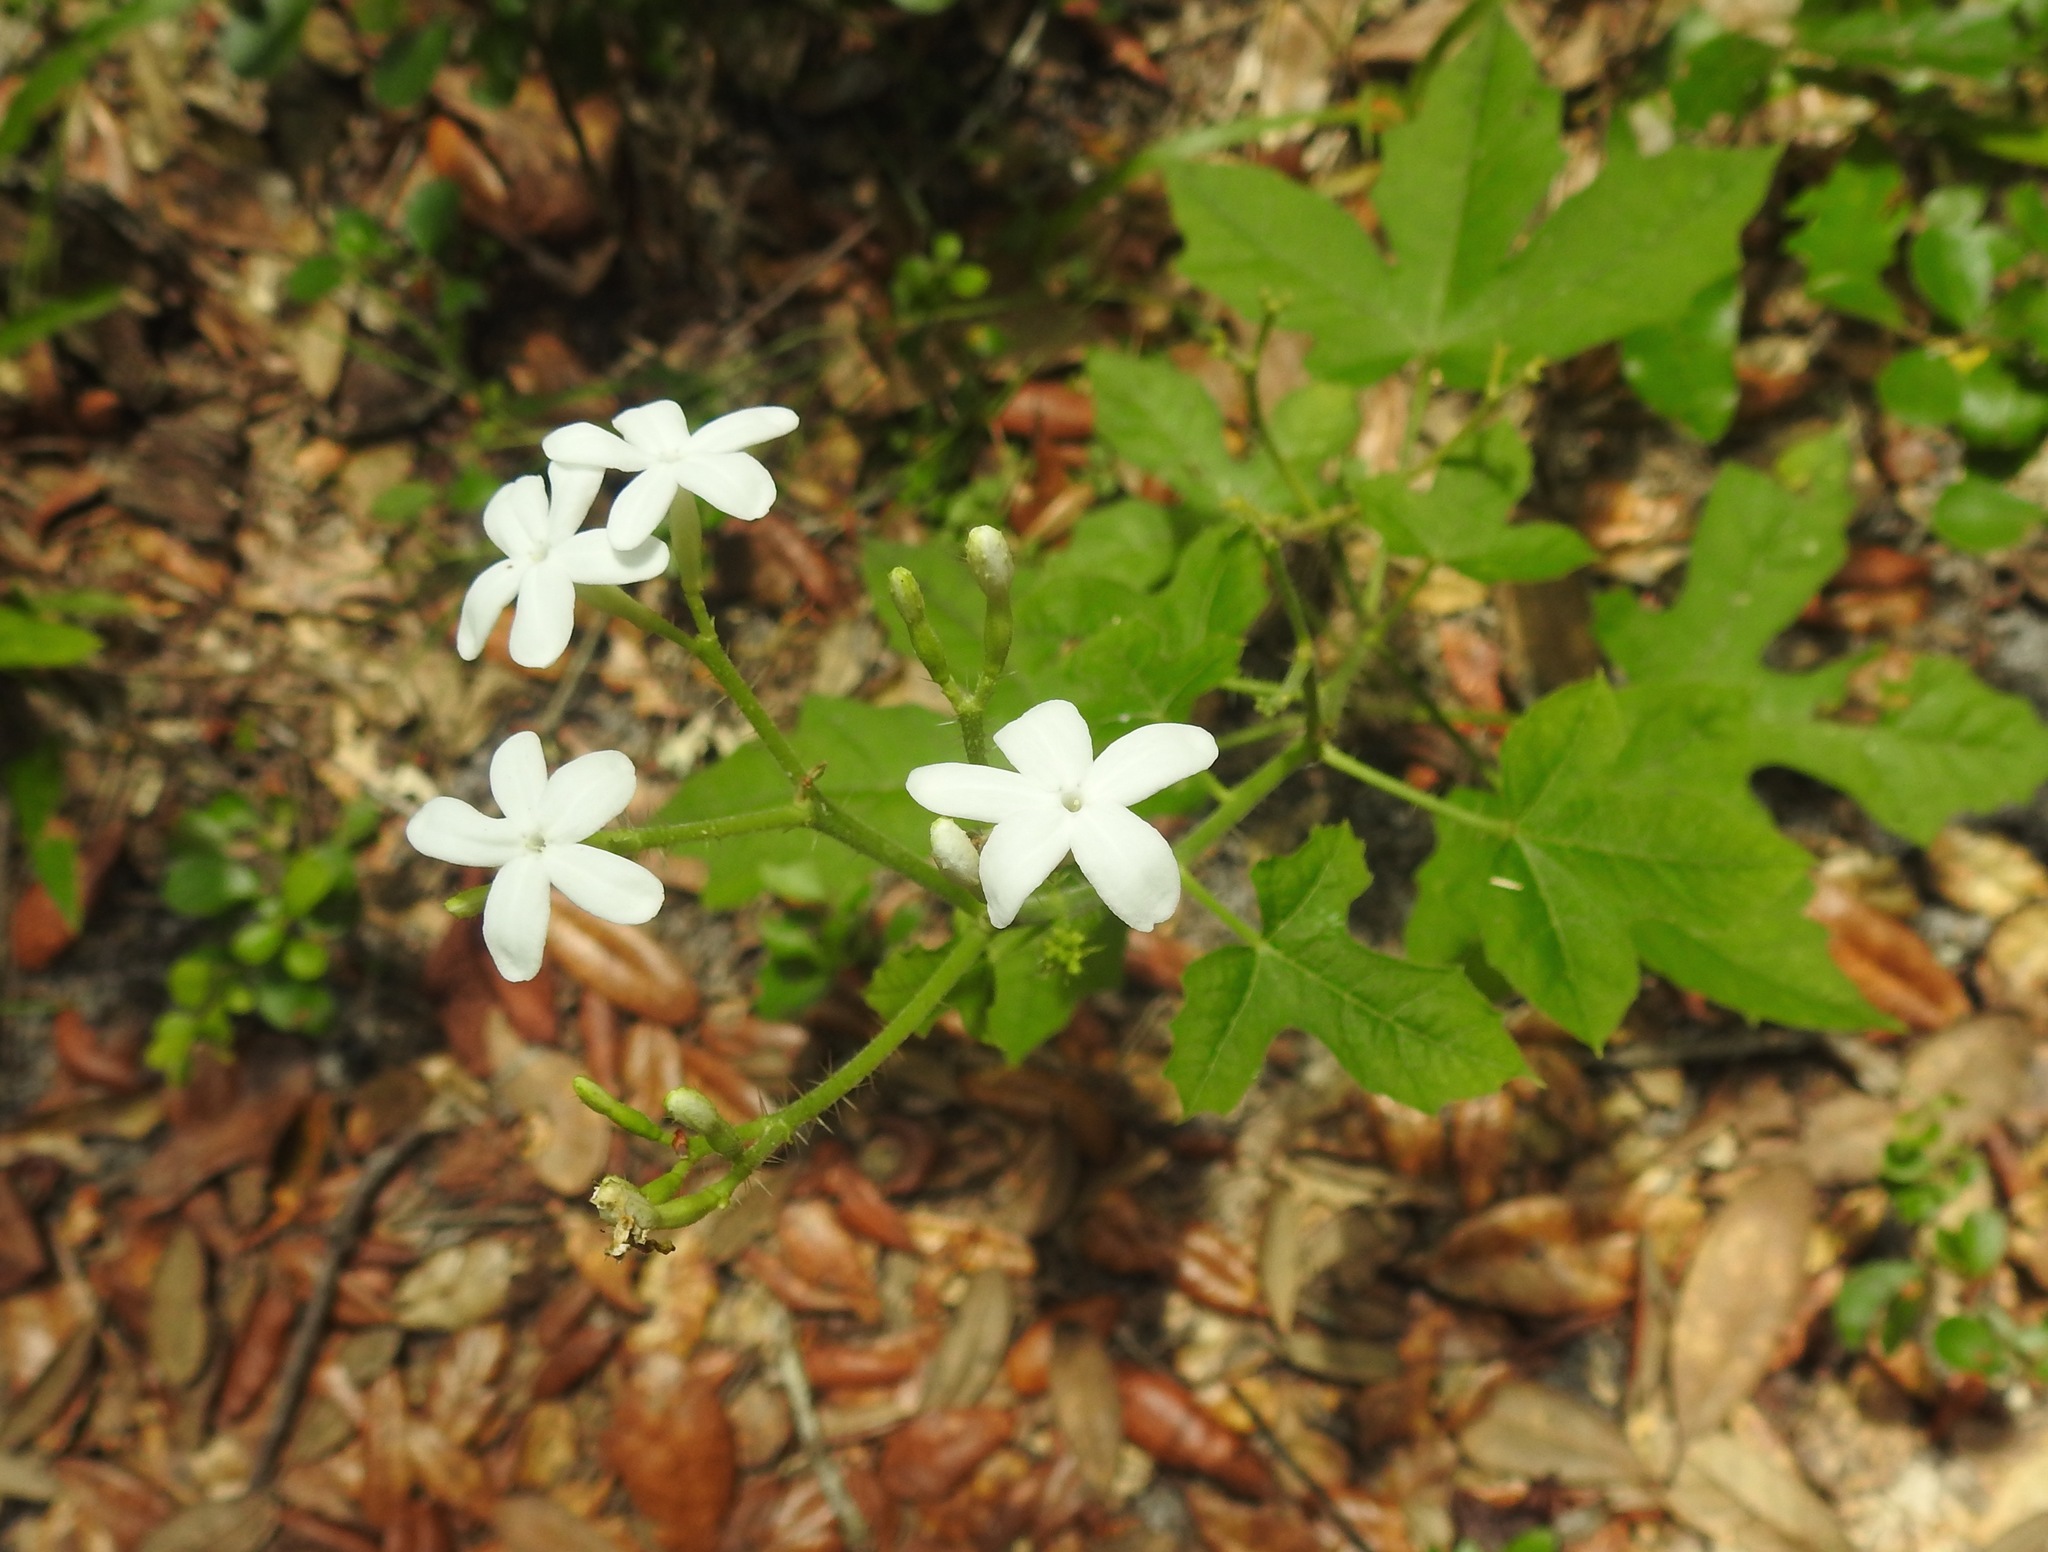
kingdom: Plantae
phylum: Tracheophyta
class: Magnoliopsida
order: Malpighiales
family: Euphorbiaceae
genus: Cnidoscolus
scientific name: Cnidoscolus stimulosus
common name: Bull-nettle
